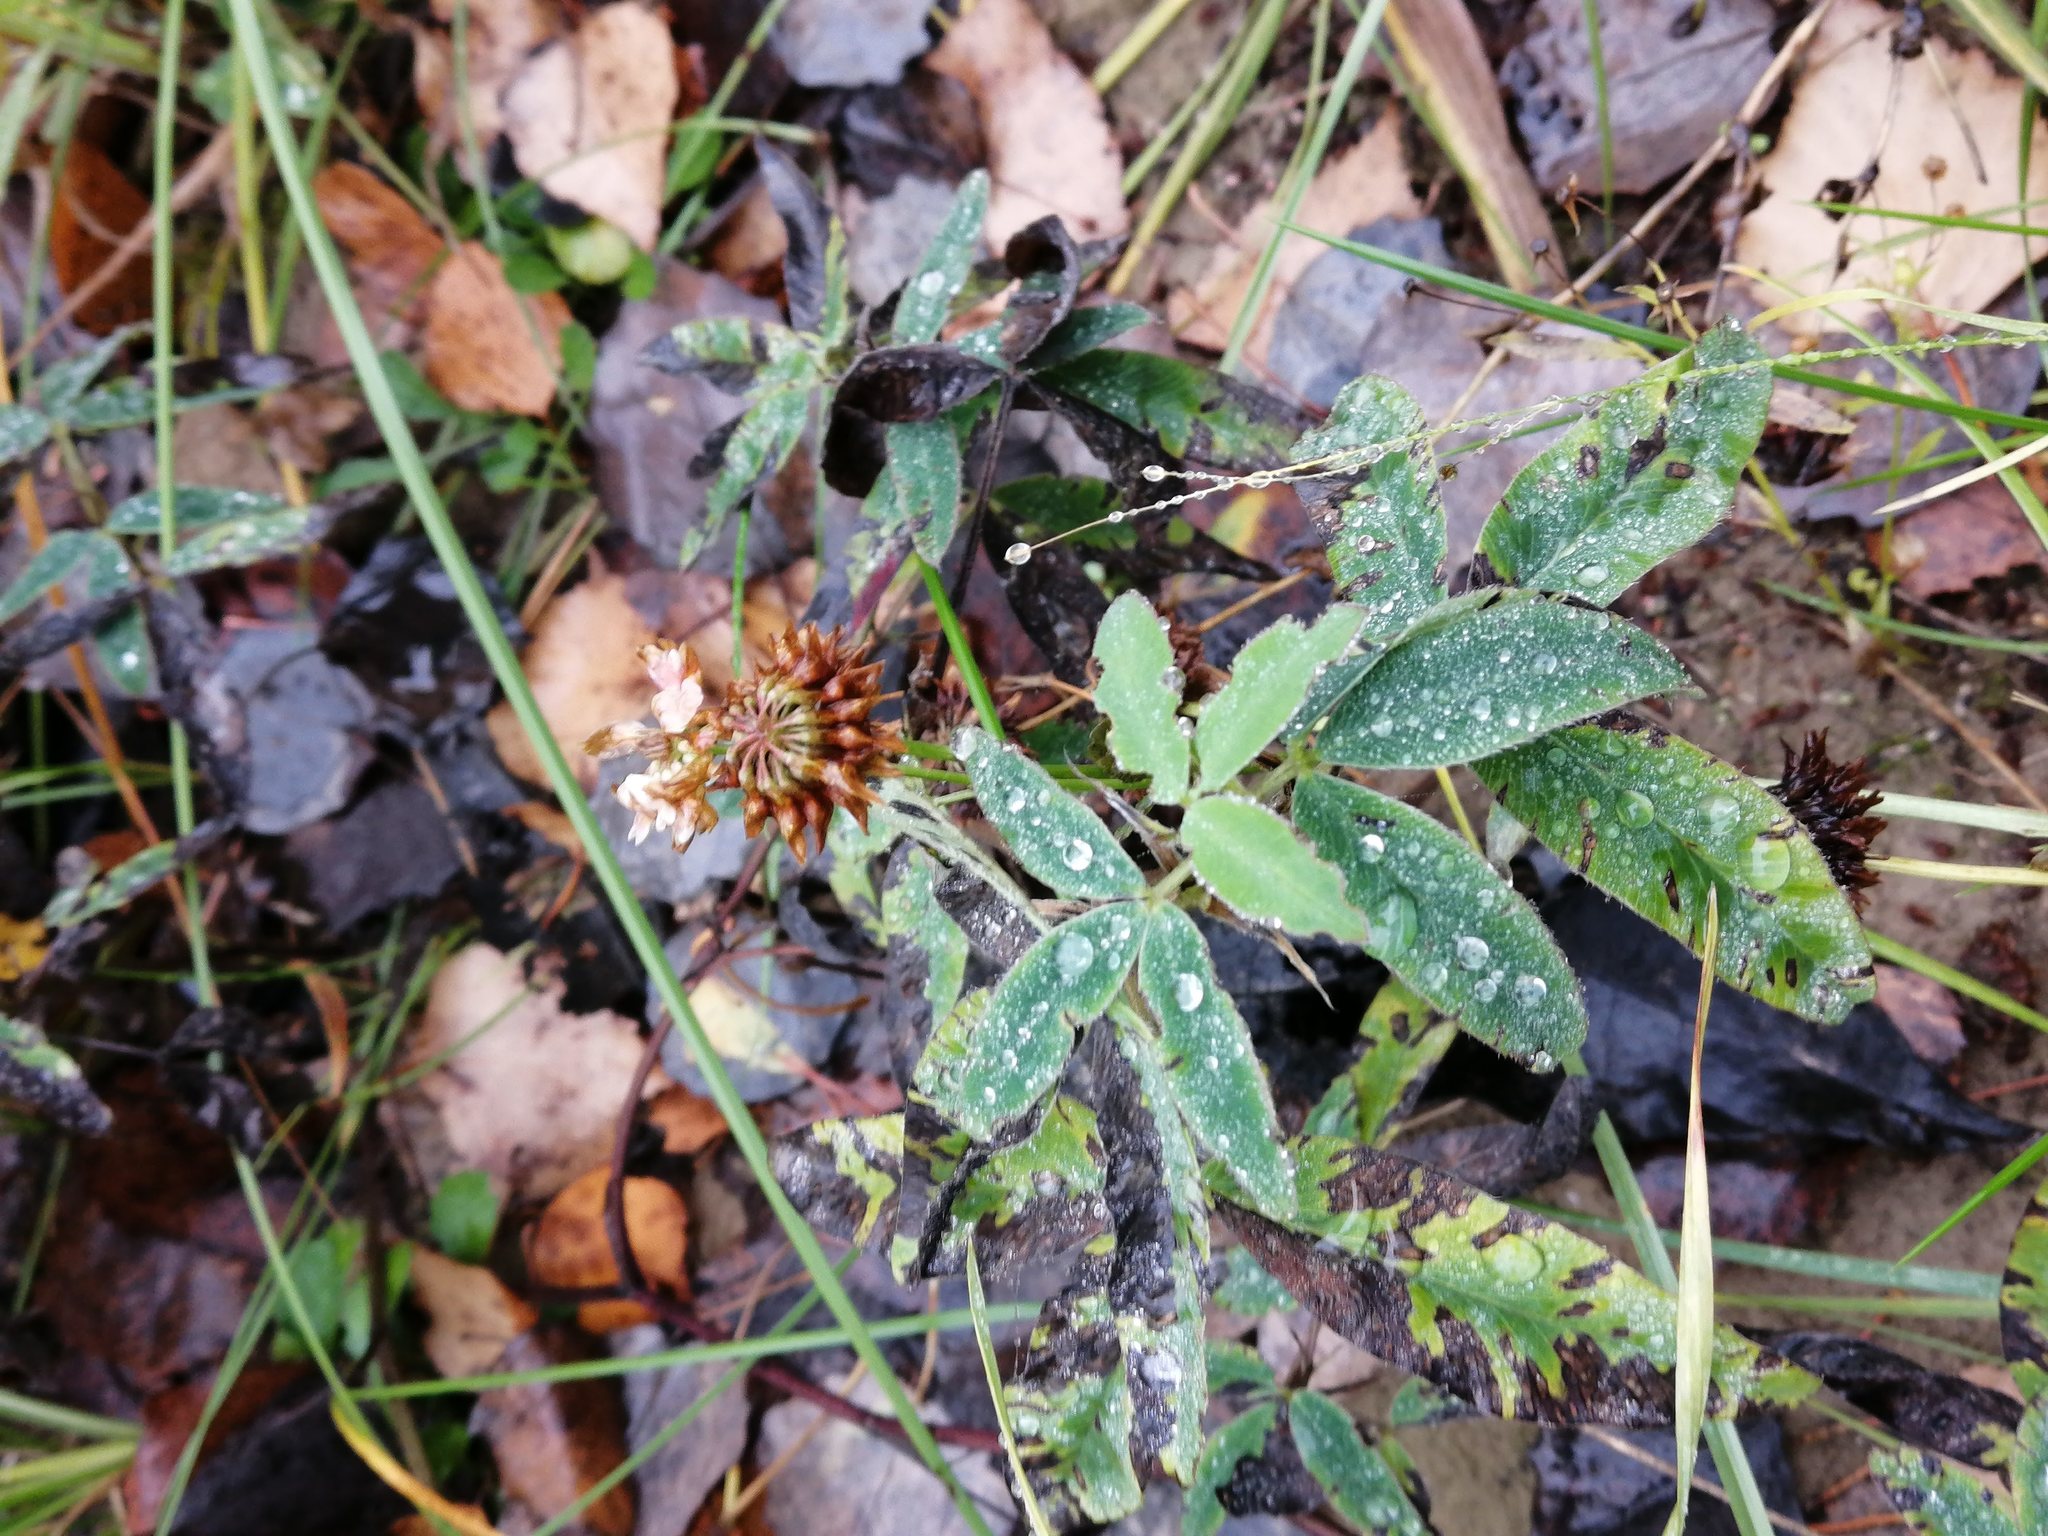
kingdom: Plantae
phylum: Tracheophyta
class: Magnoliopsida
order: Fabales
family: Fabaceae
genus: Trifolium
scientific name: Trifolium medium
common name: Zigzag clover
